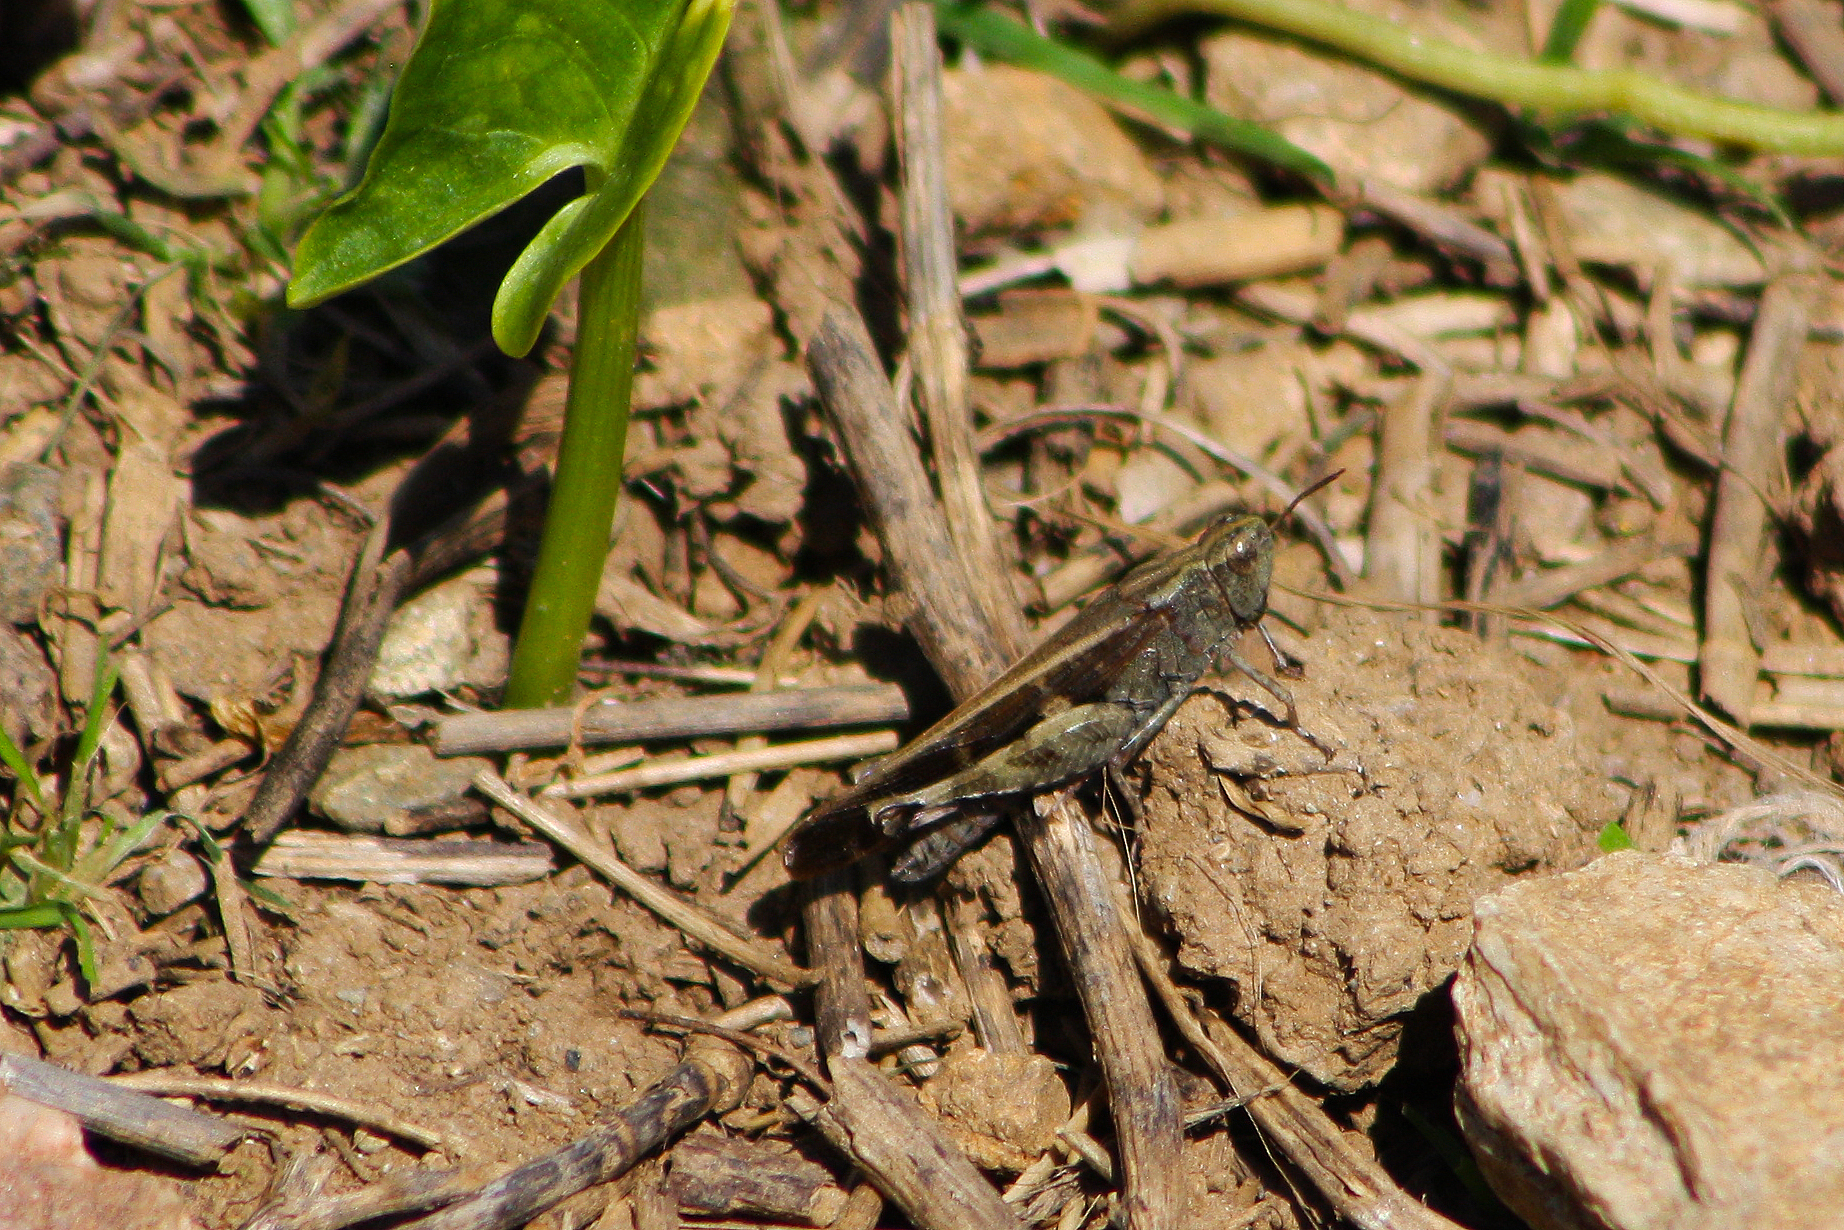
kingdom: Animalia
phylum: Arthropoda
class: Insecta
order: Orthoptera
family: Acrididae
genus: Aiolopus
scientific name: Aiolopus strepens
